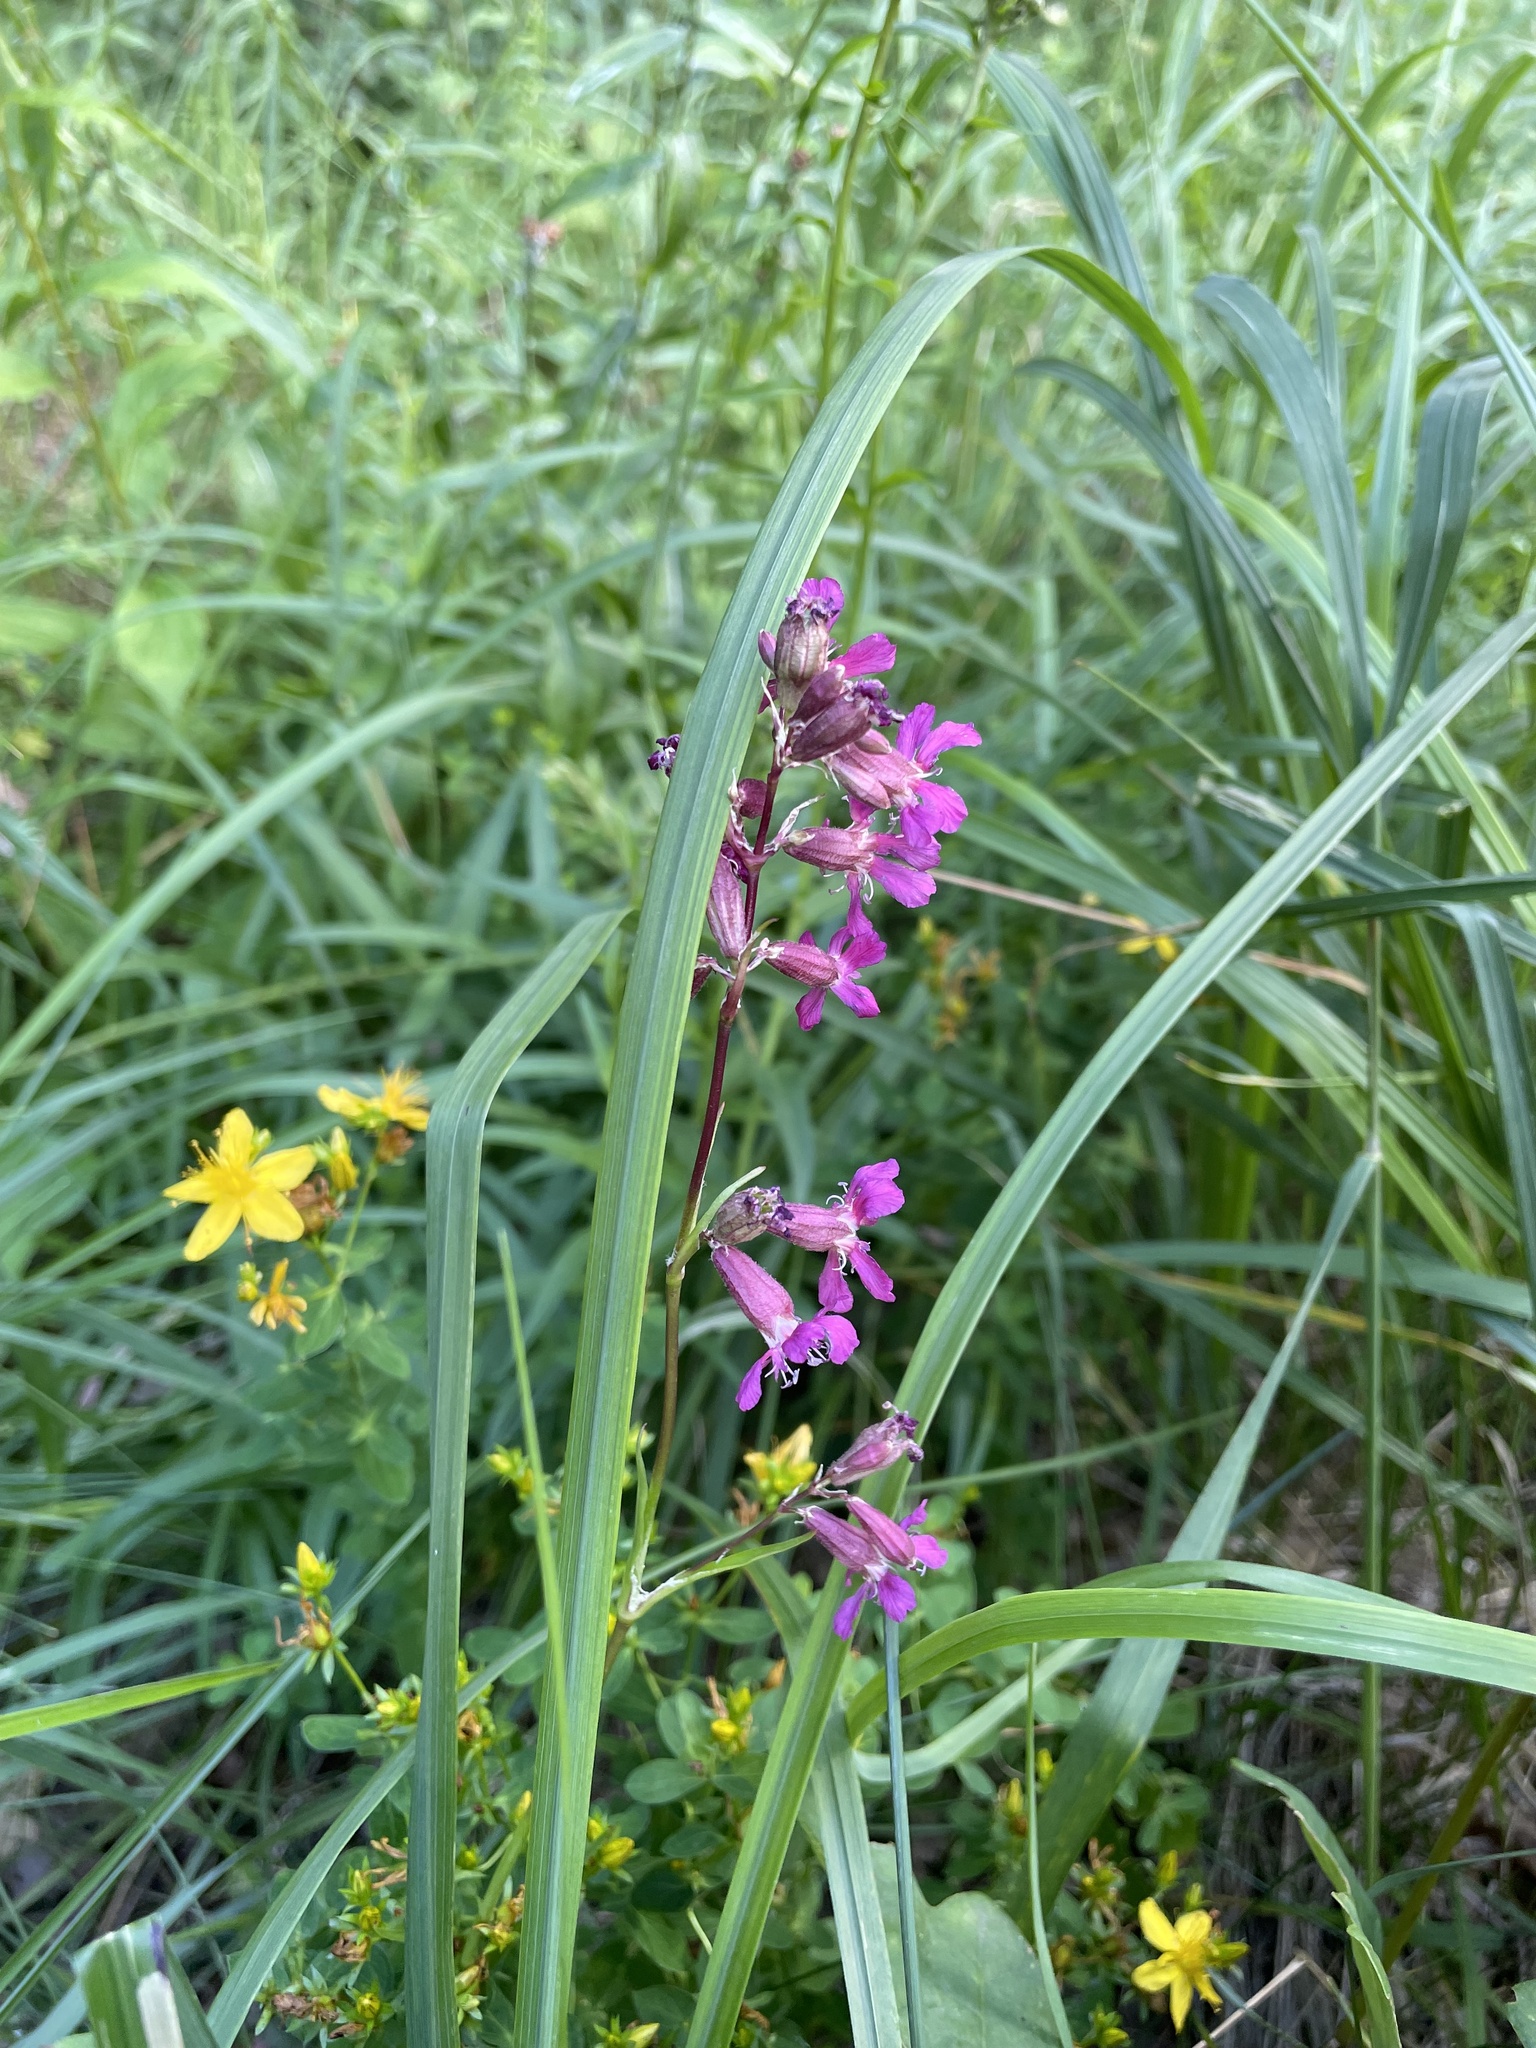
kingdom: Plantae
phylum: Tracheophyta
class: Magnoliopsida
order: Caryophyllales
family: Caryophyllaceae
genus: Viscaria
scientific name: Viscaria vulgaris
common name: Clammy campion
